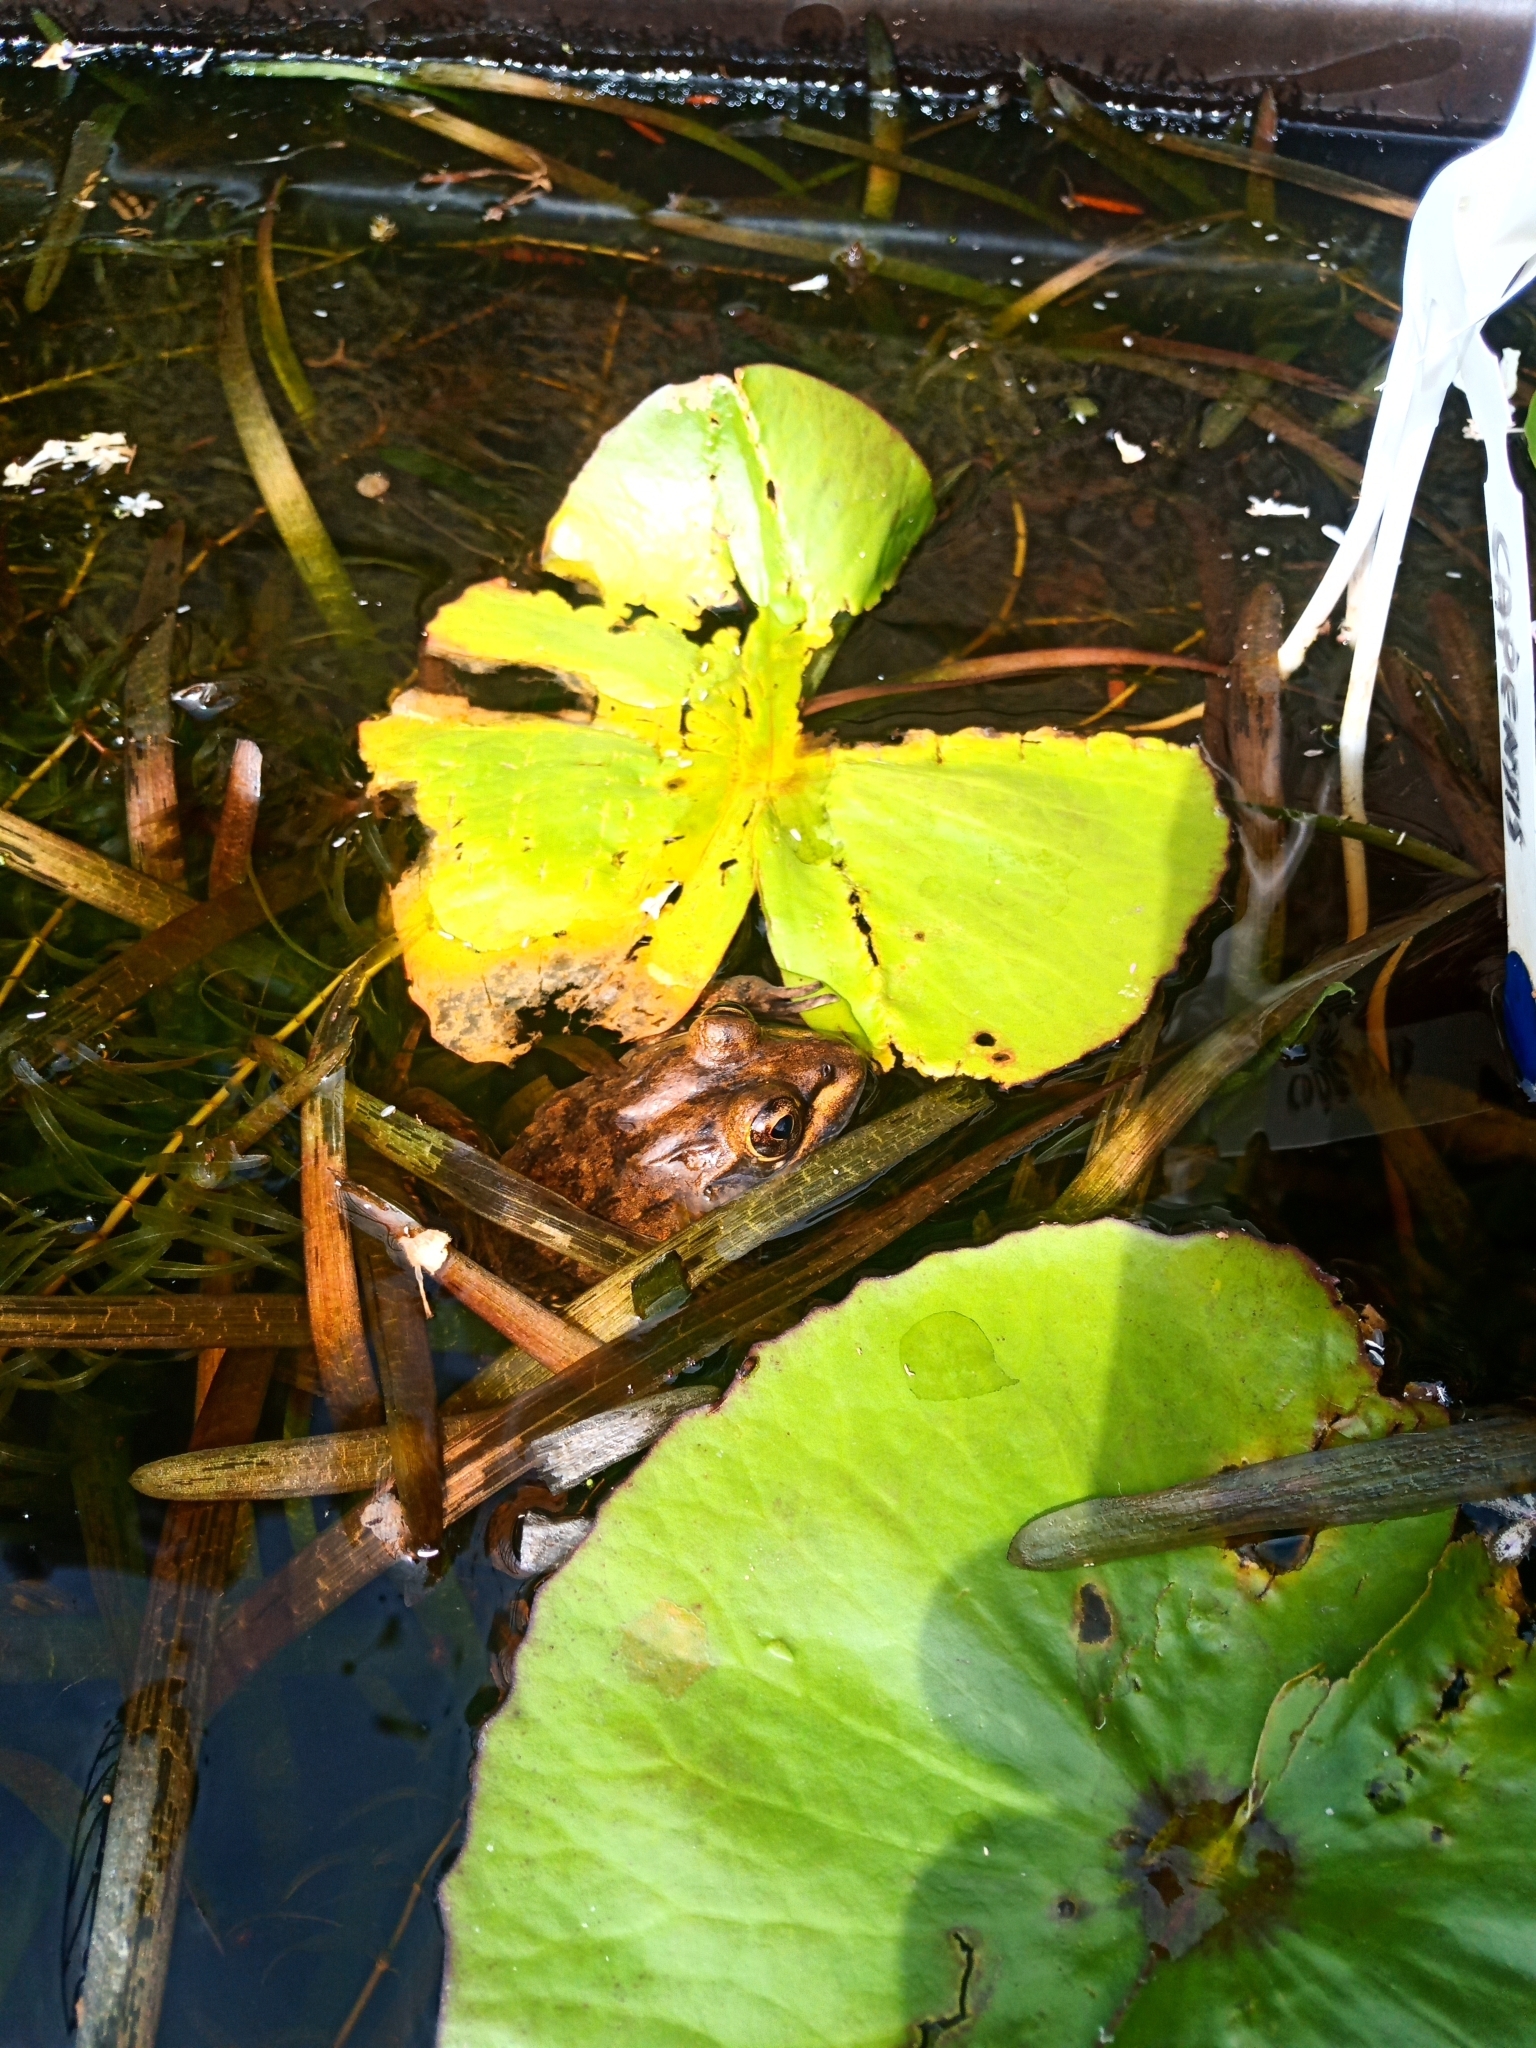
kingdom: Animalia
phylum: Chordata
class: Amphibia
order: Anura
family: Pyxicephalidae
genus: Amietia
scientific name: Amietia fuscigula
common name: Cape rana
